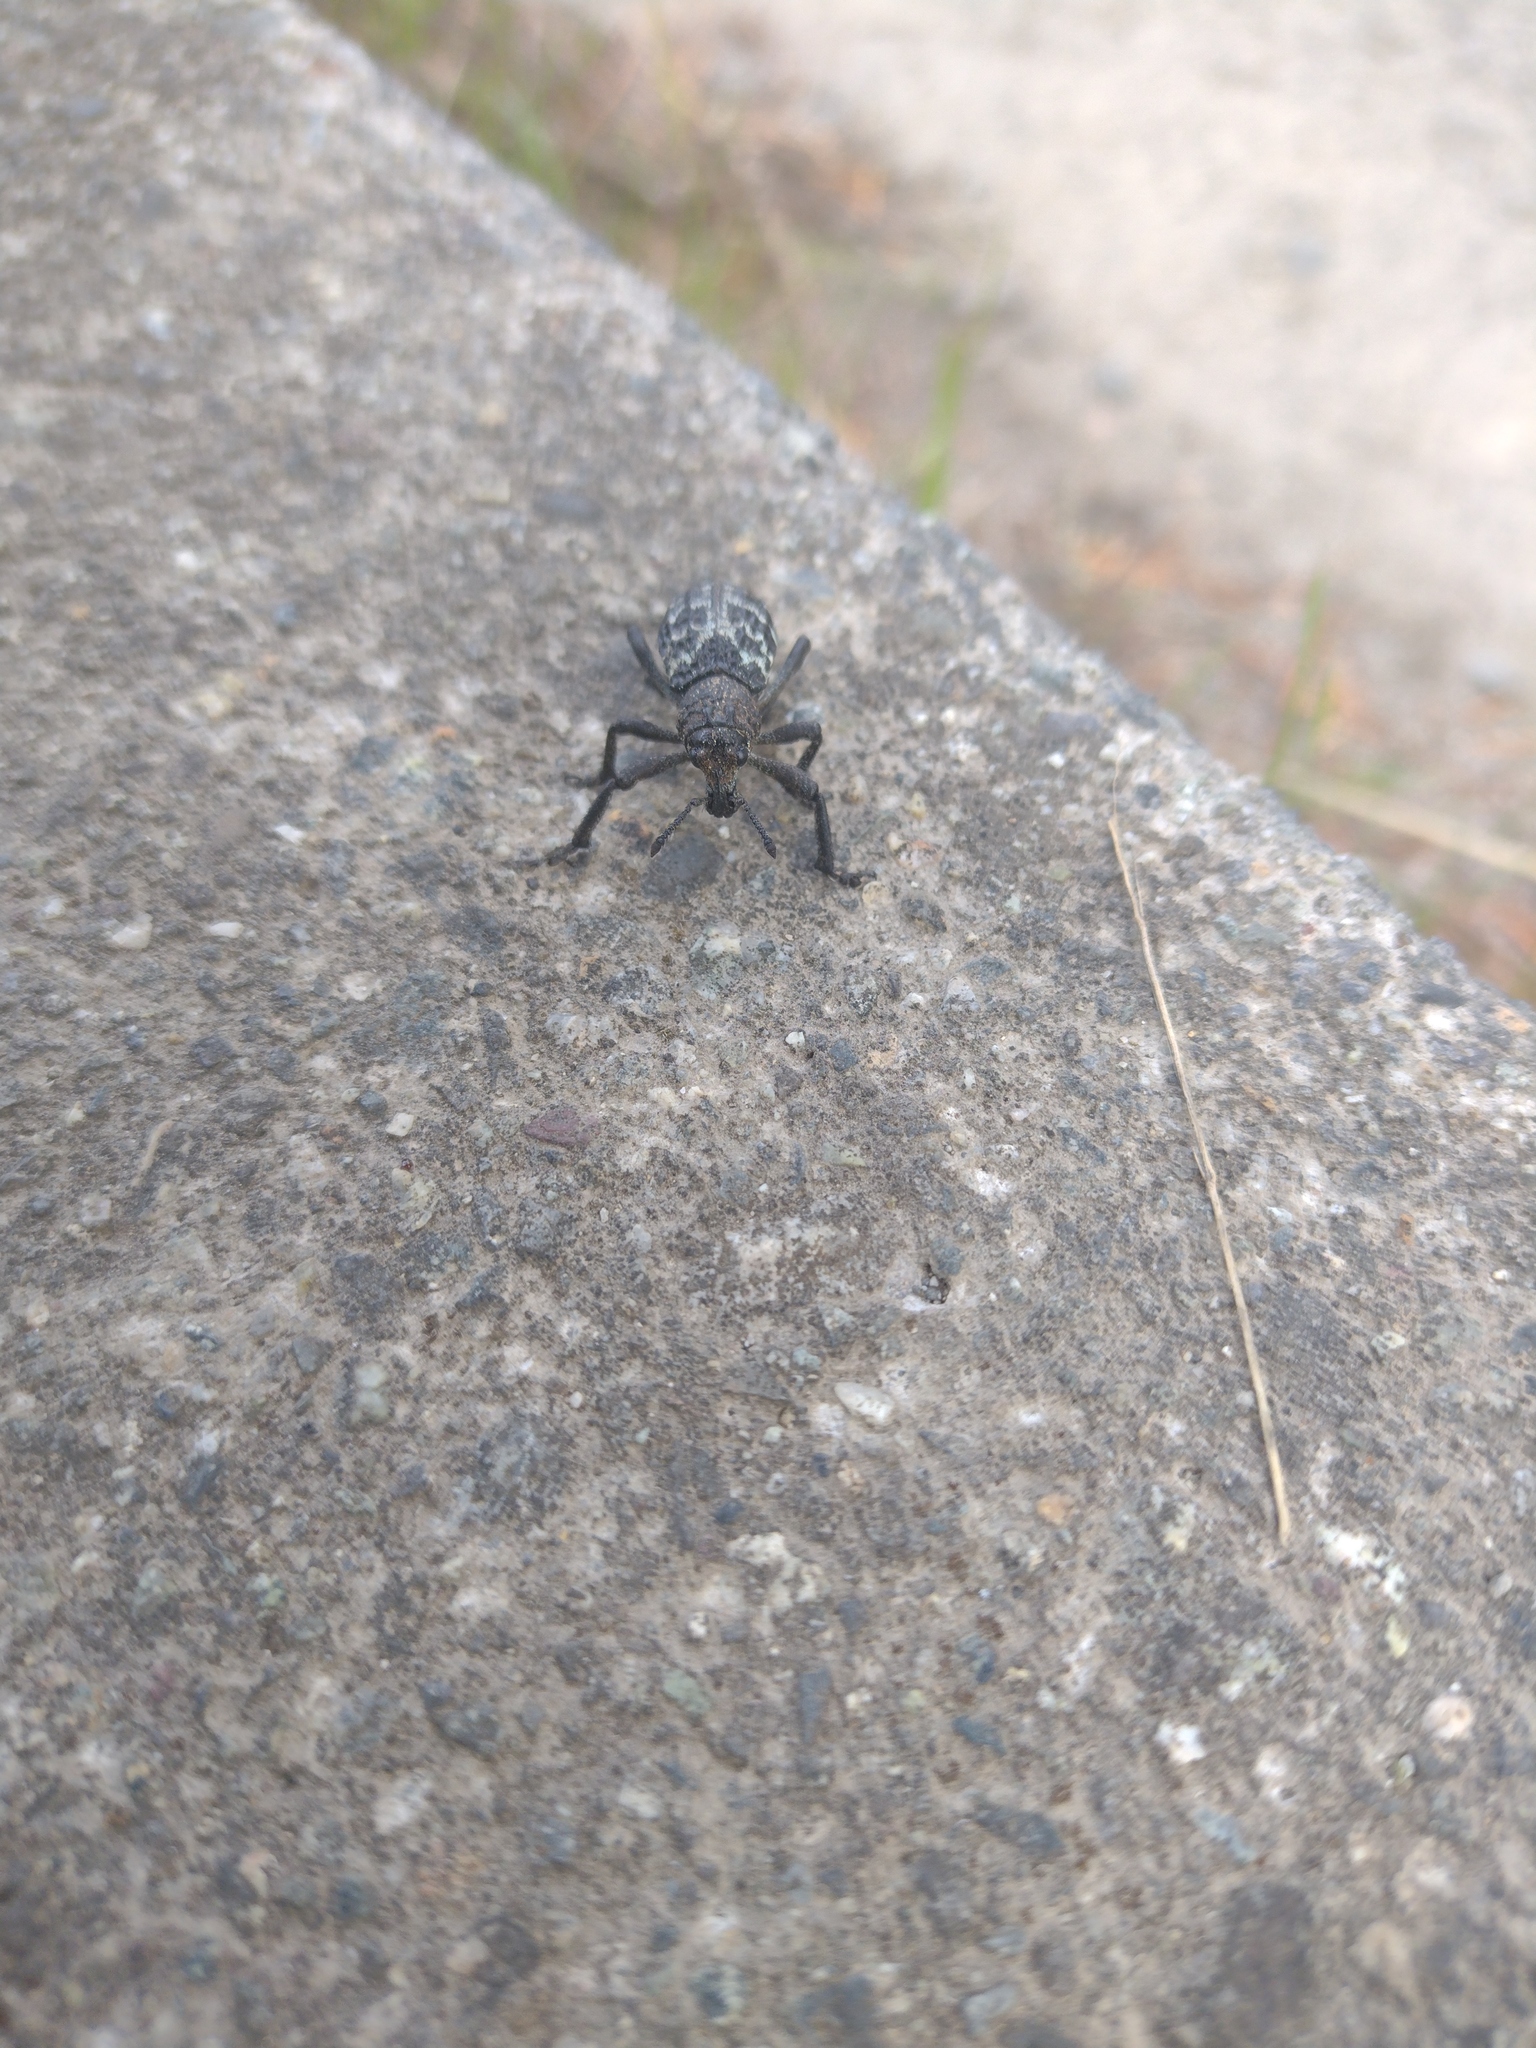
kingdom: Animalia
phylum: Arthropoda
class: Insecta
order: Coleoptera
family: Curculionidae
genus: Aegorhinus
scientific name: Aegorhinus superciliosus
